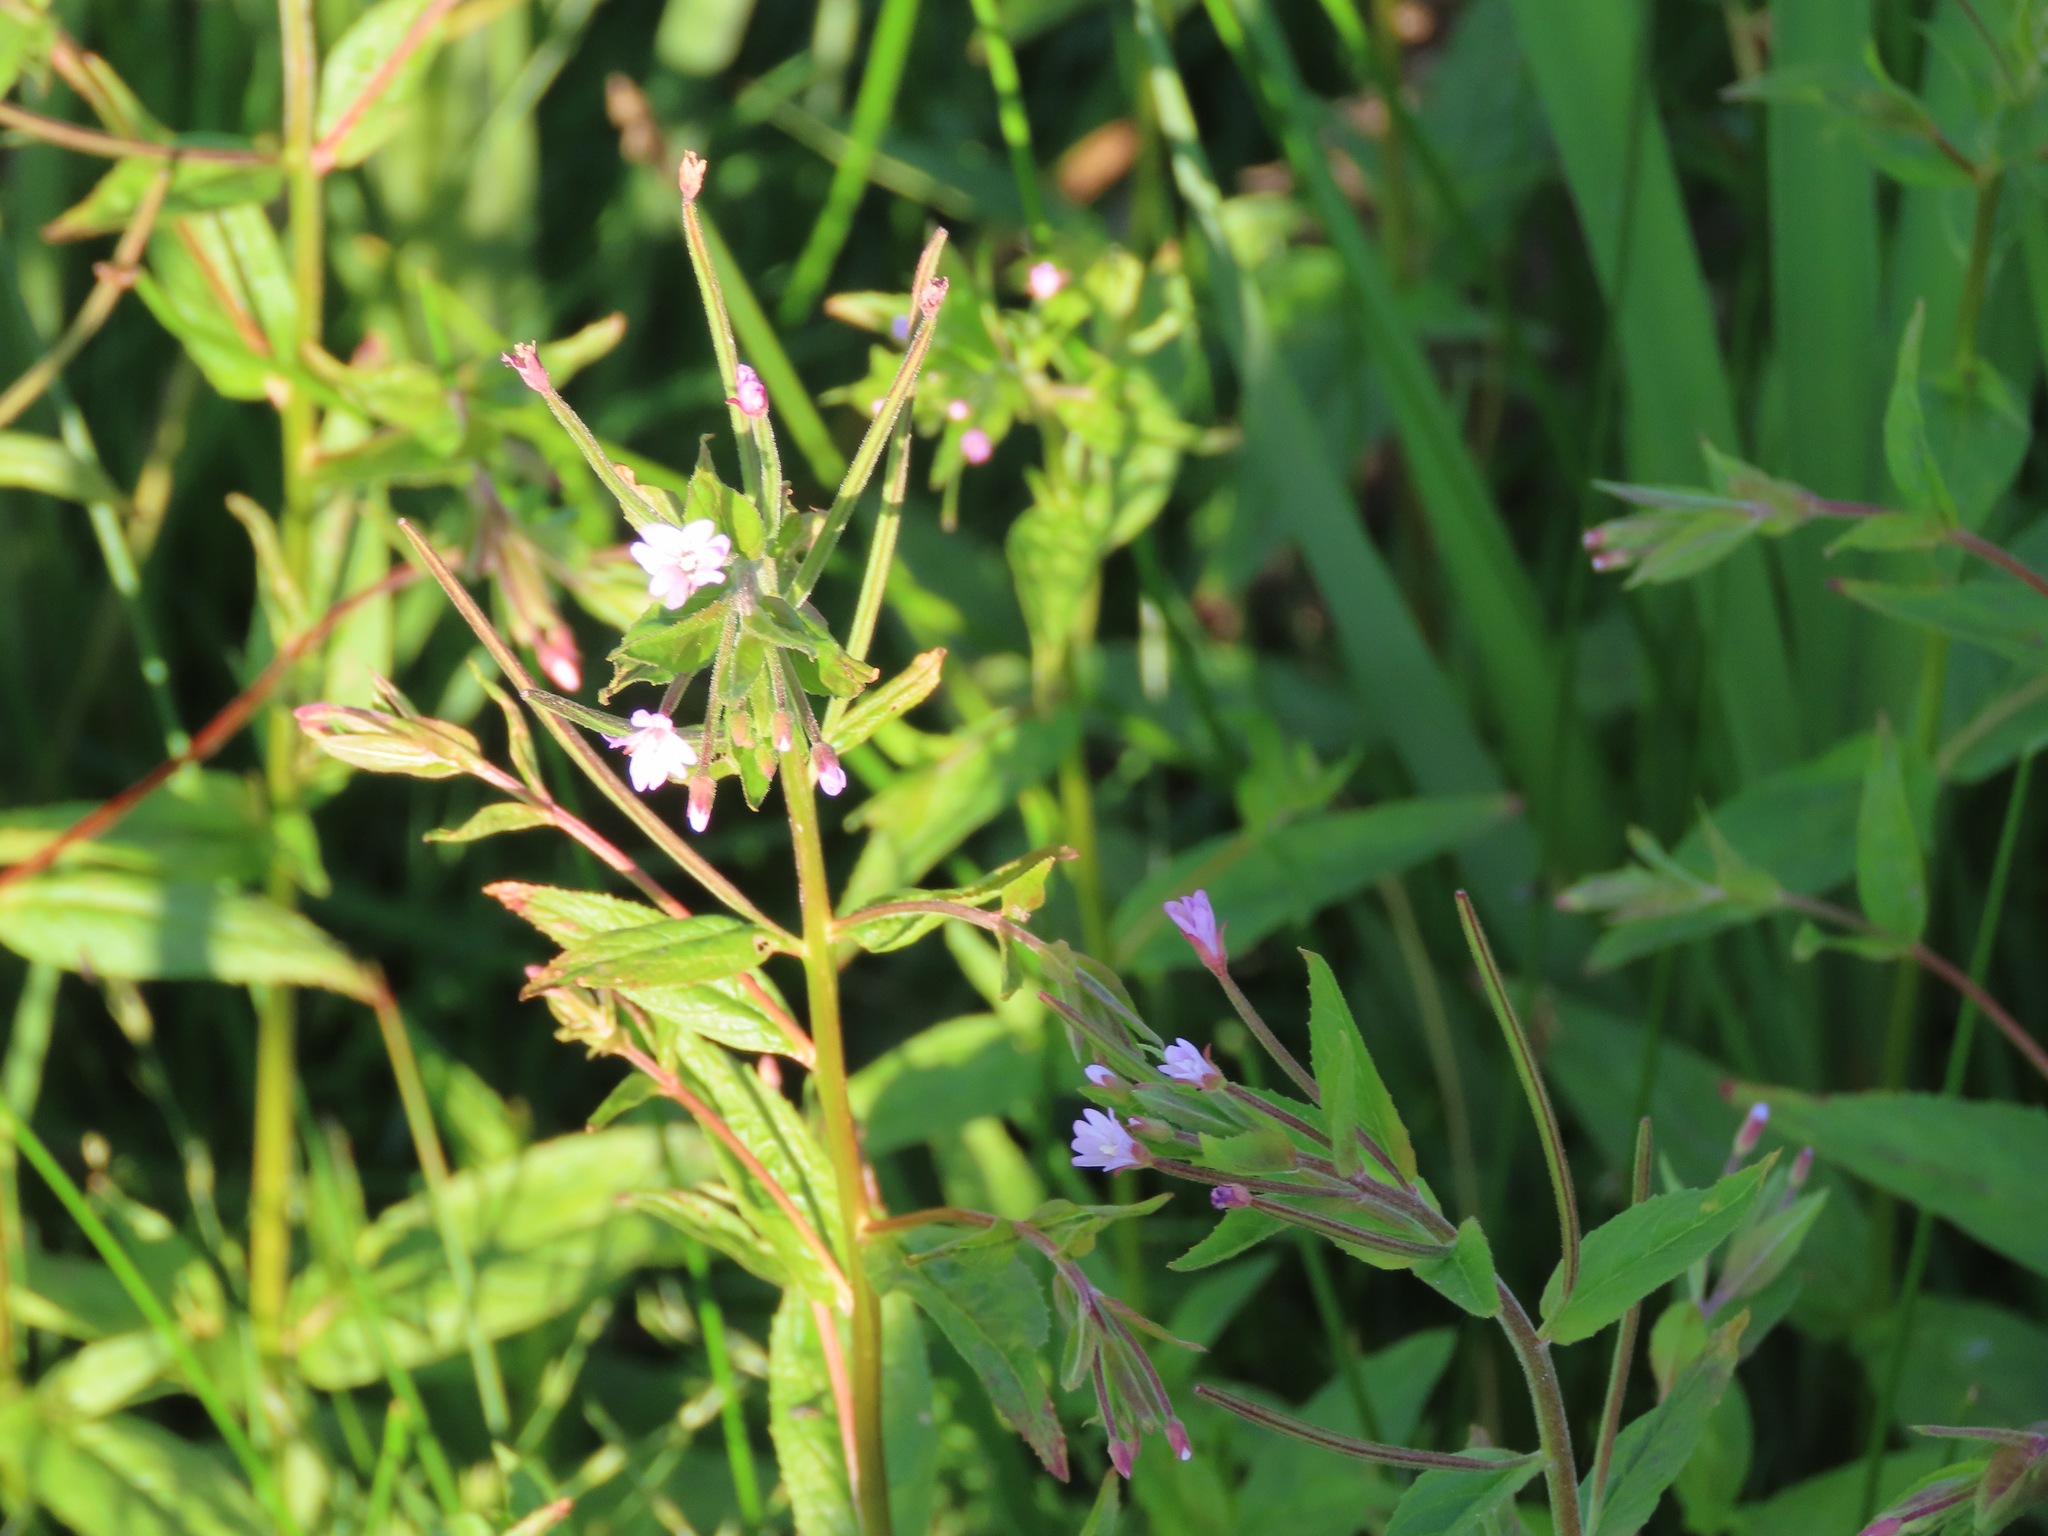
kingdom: Plantae
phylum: Tracheophyta
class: Magnoliopsida
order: Myrtales
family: Onagraceae
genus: Epilobium
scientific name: Epilobium ciliatum
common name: American willowherb
